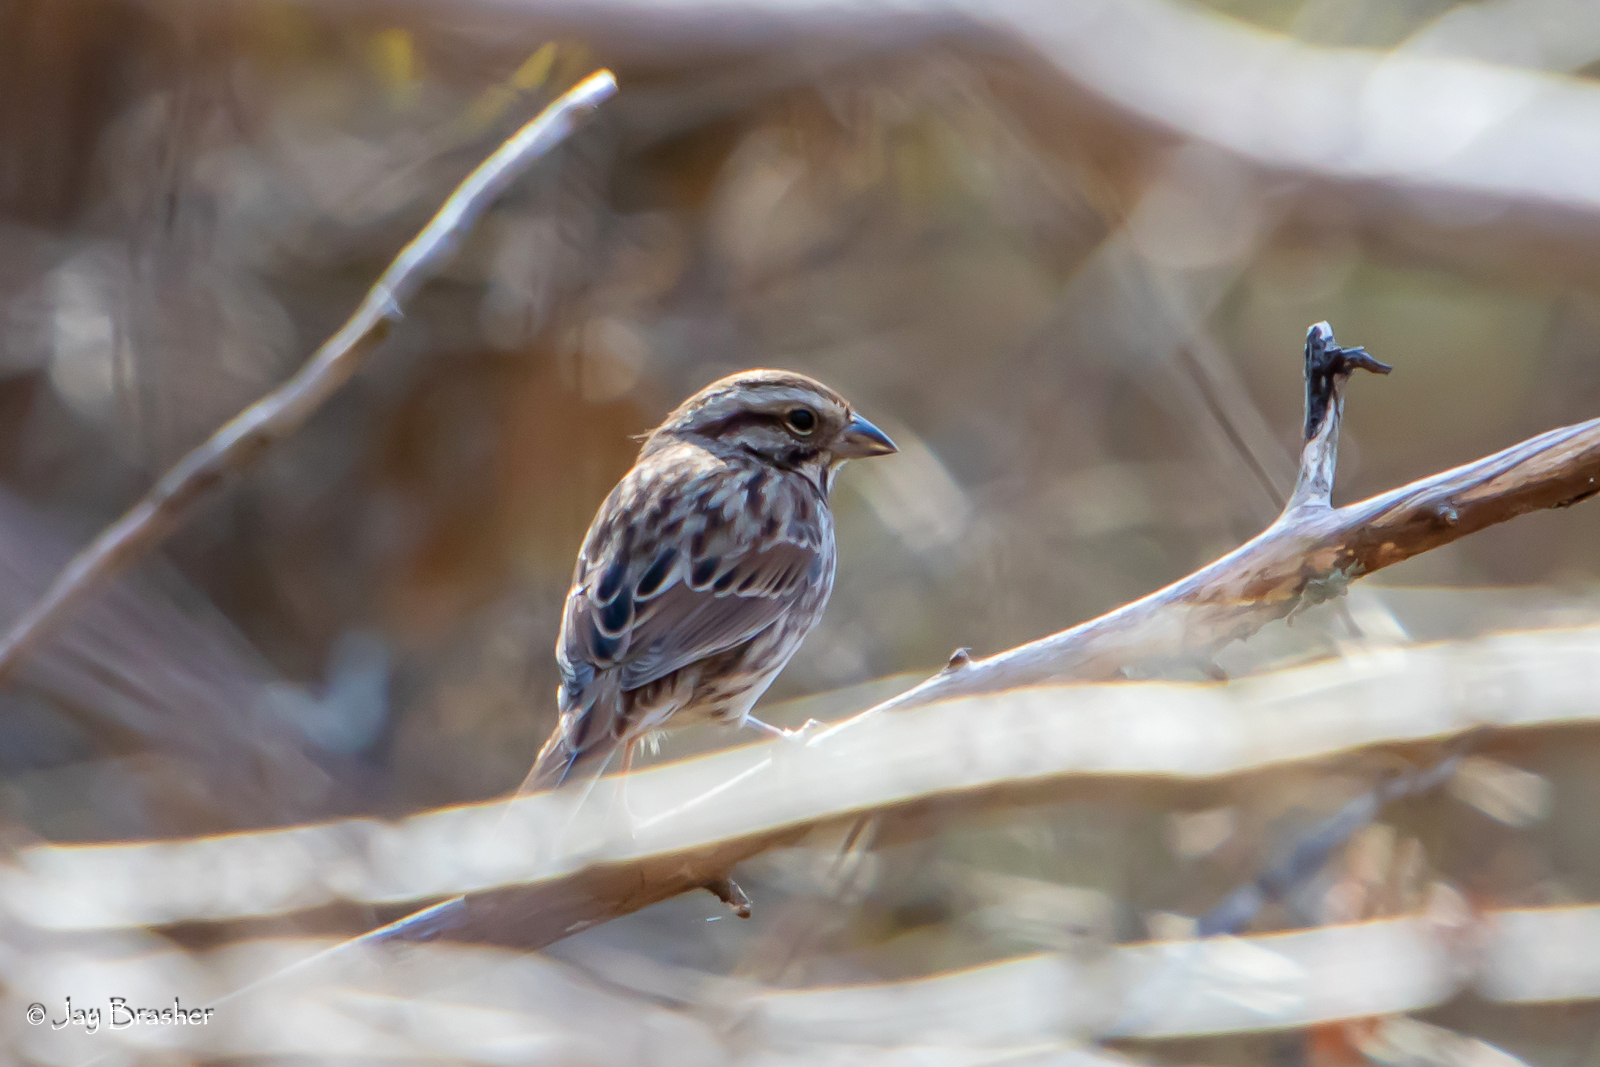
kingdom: Animalia
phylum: Chordata
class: Aves
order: Passeriformes
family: Passerellidae
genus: Melospiza
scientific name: Melospiza melodia
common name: Song sparrow
